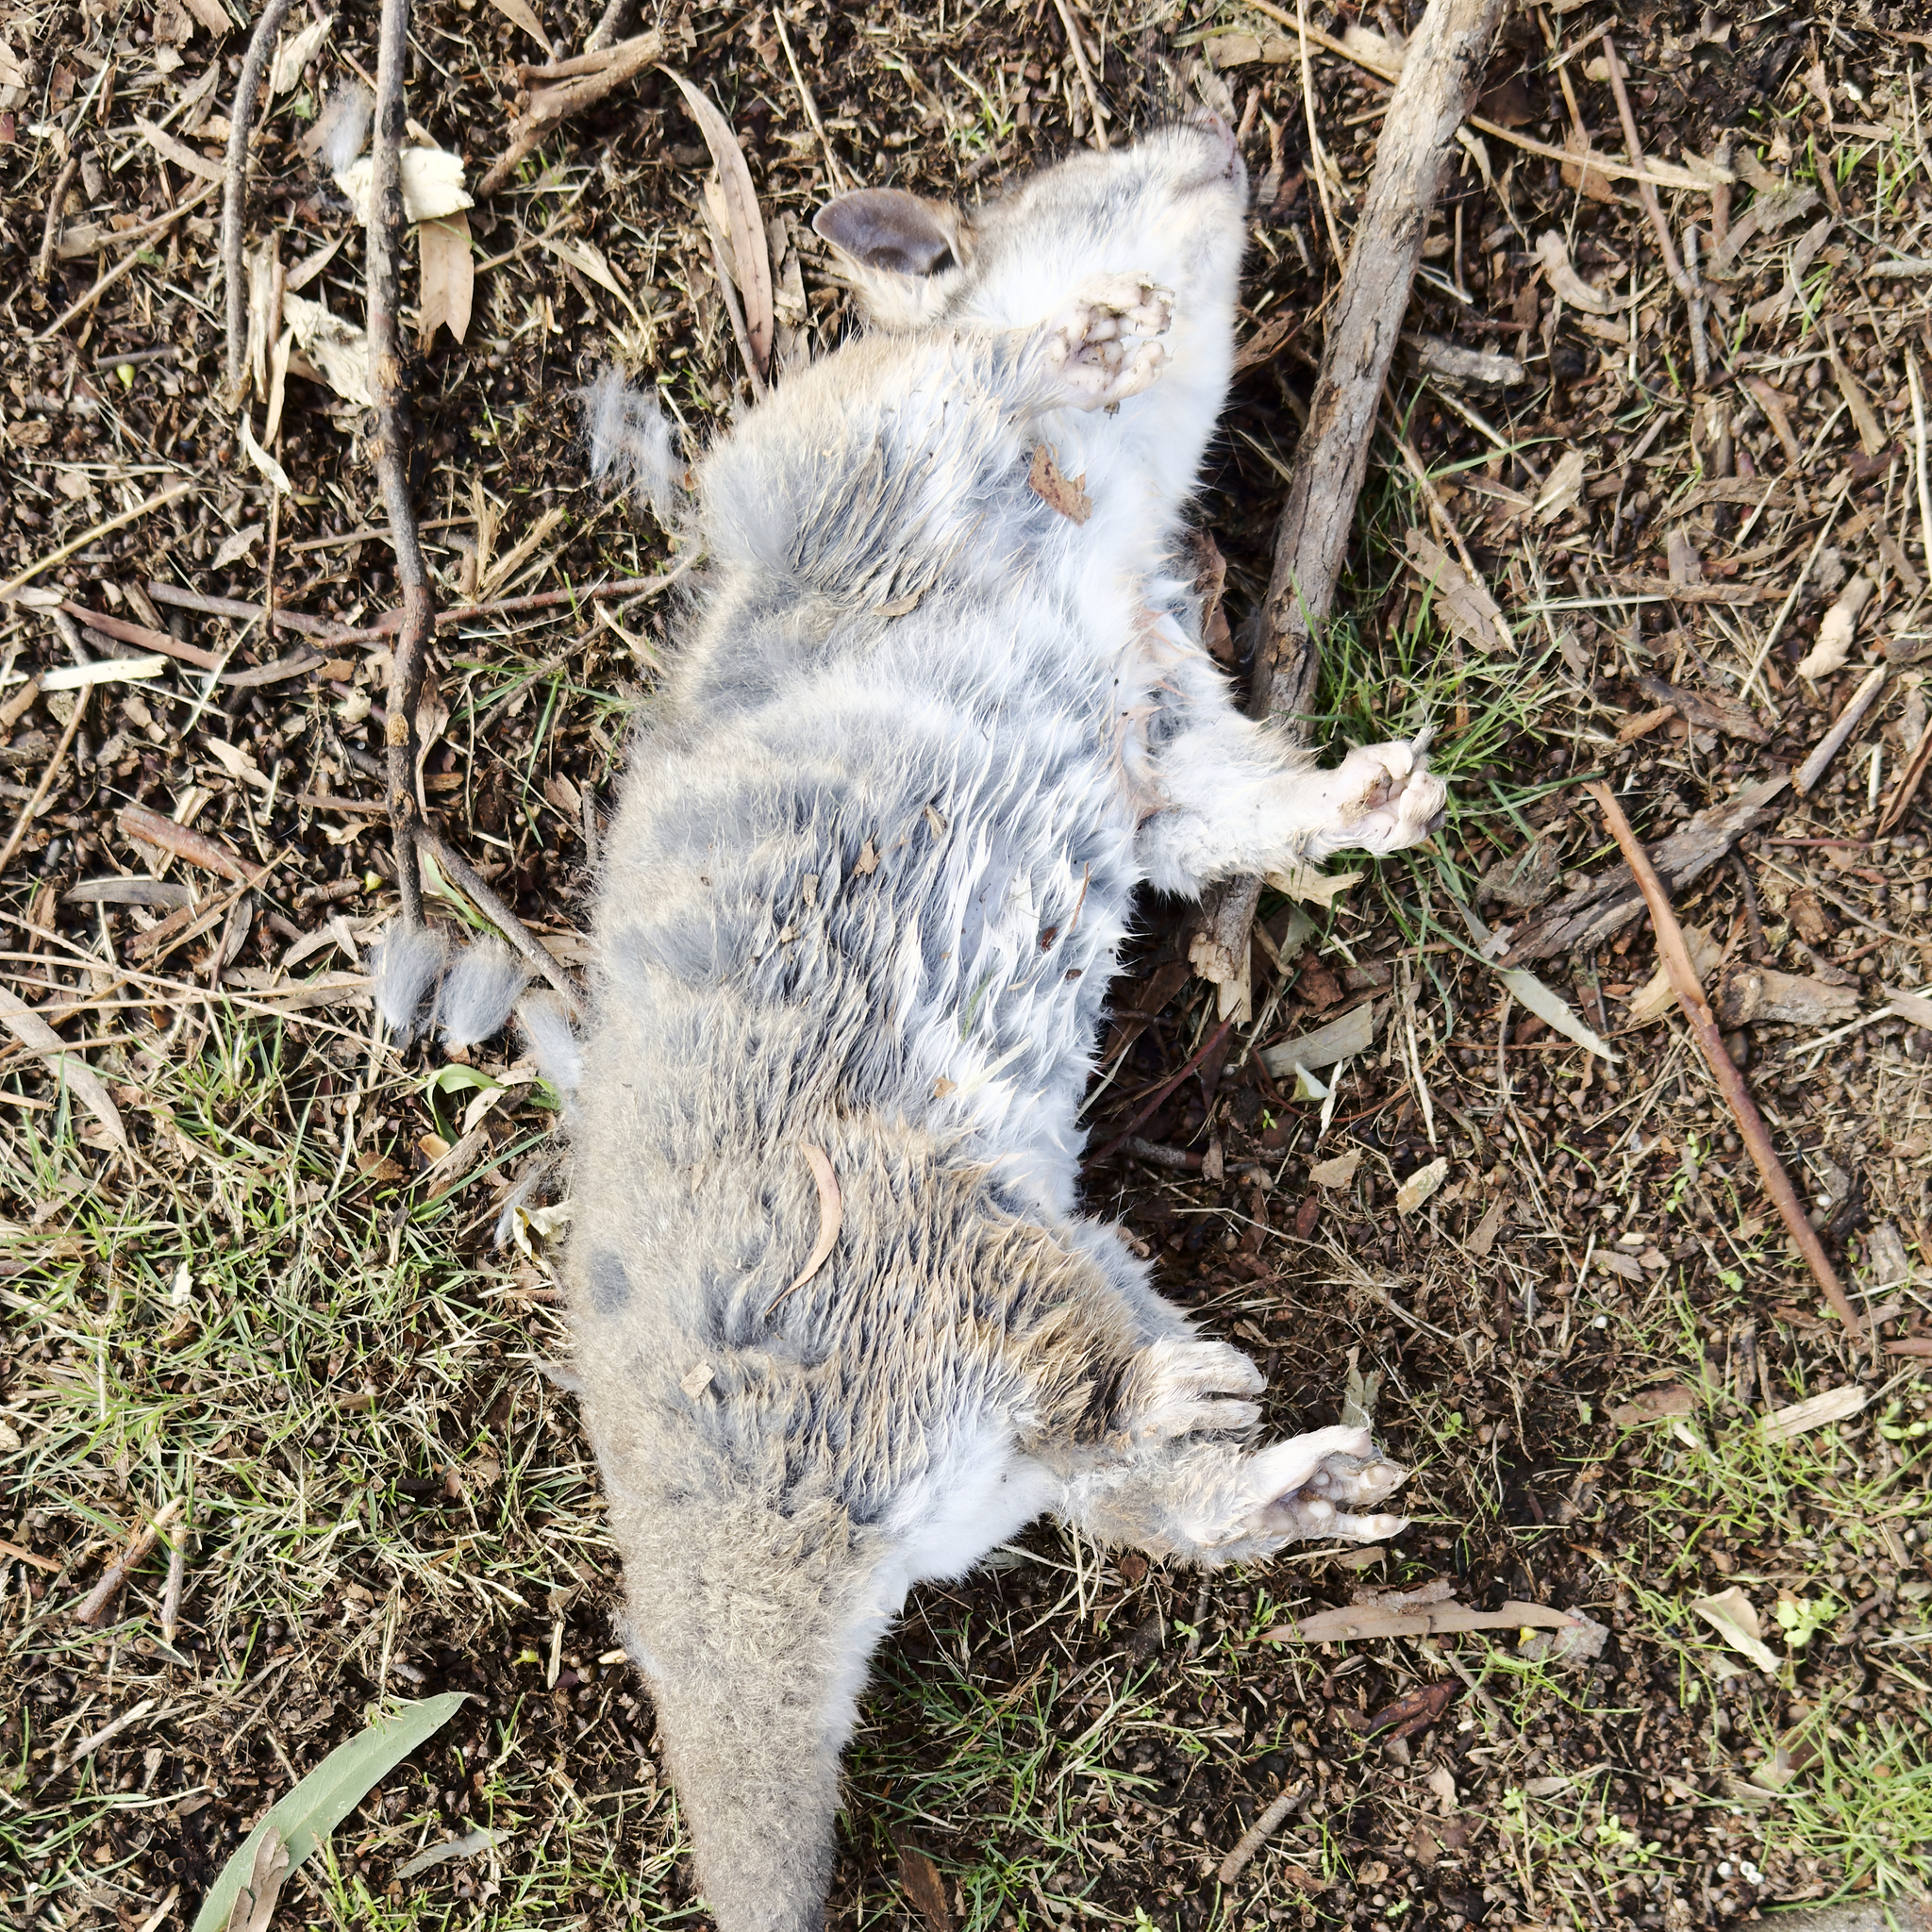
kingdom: Animalia
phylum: Chordata
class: Mammalia
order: Diprotodontia
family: Pseudocheiridae
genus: Pseudocheirus
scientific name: Pseudocheirus peregrinus
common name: Common ringtail possum
